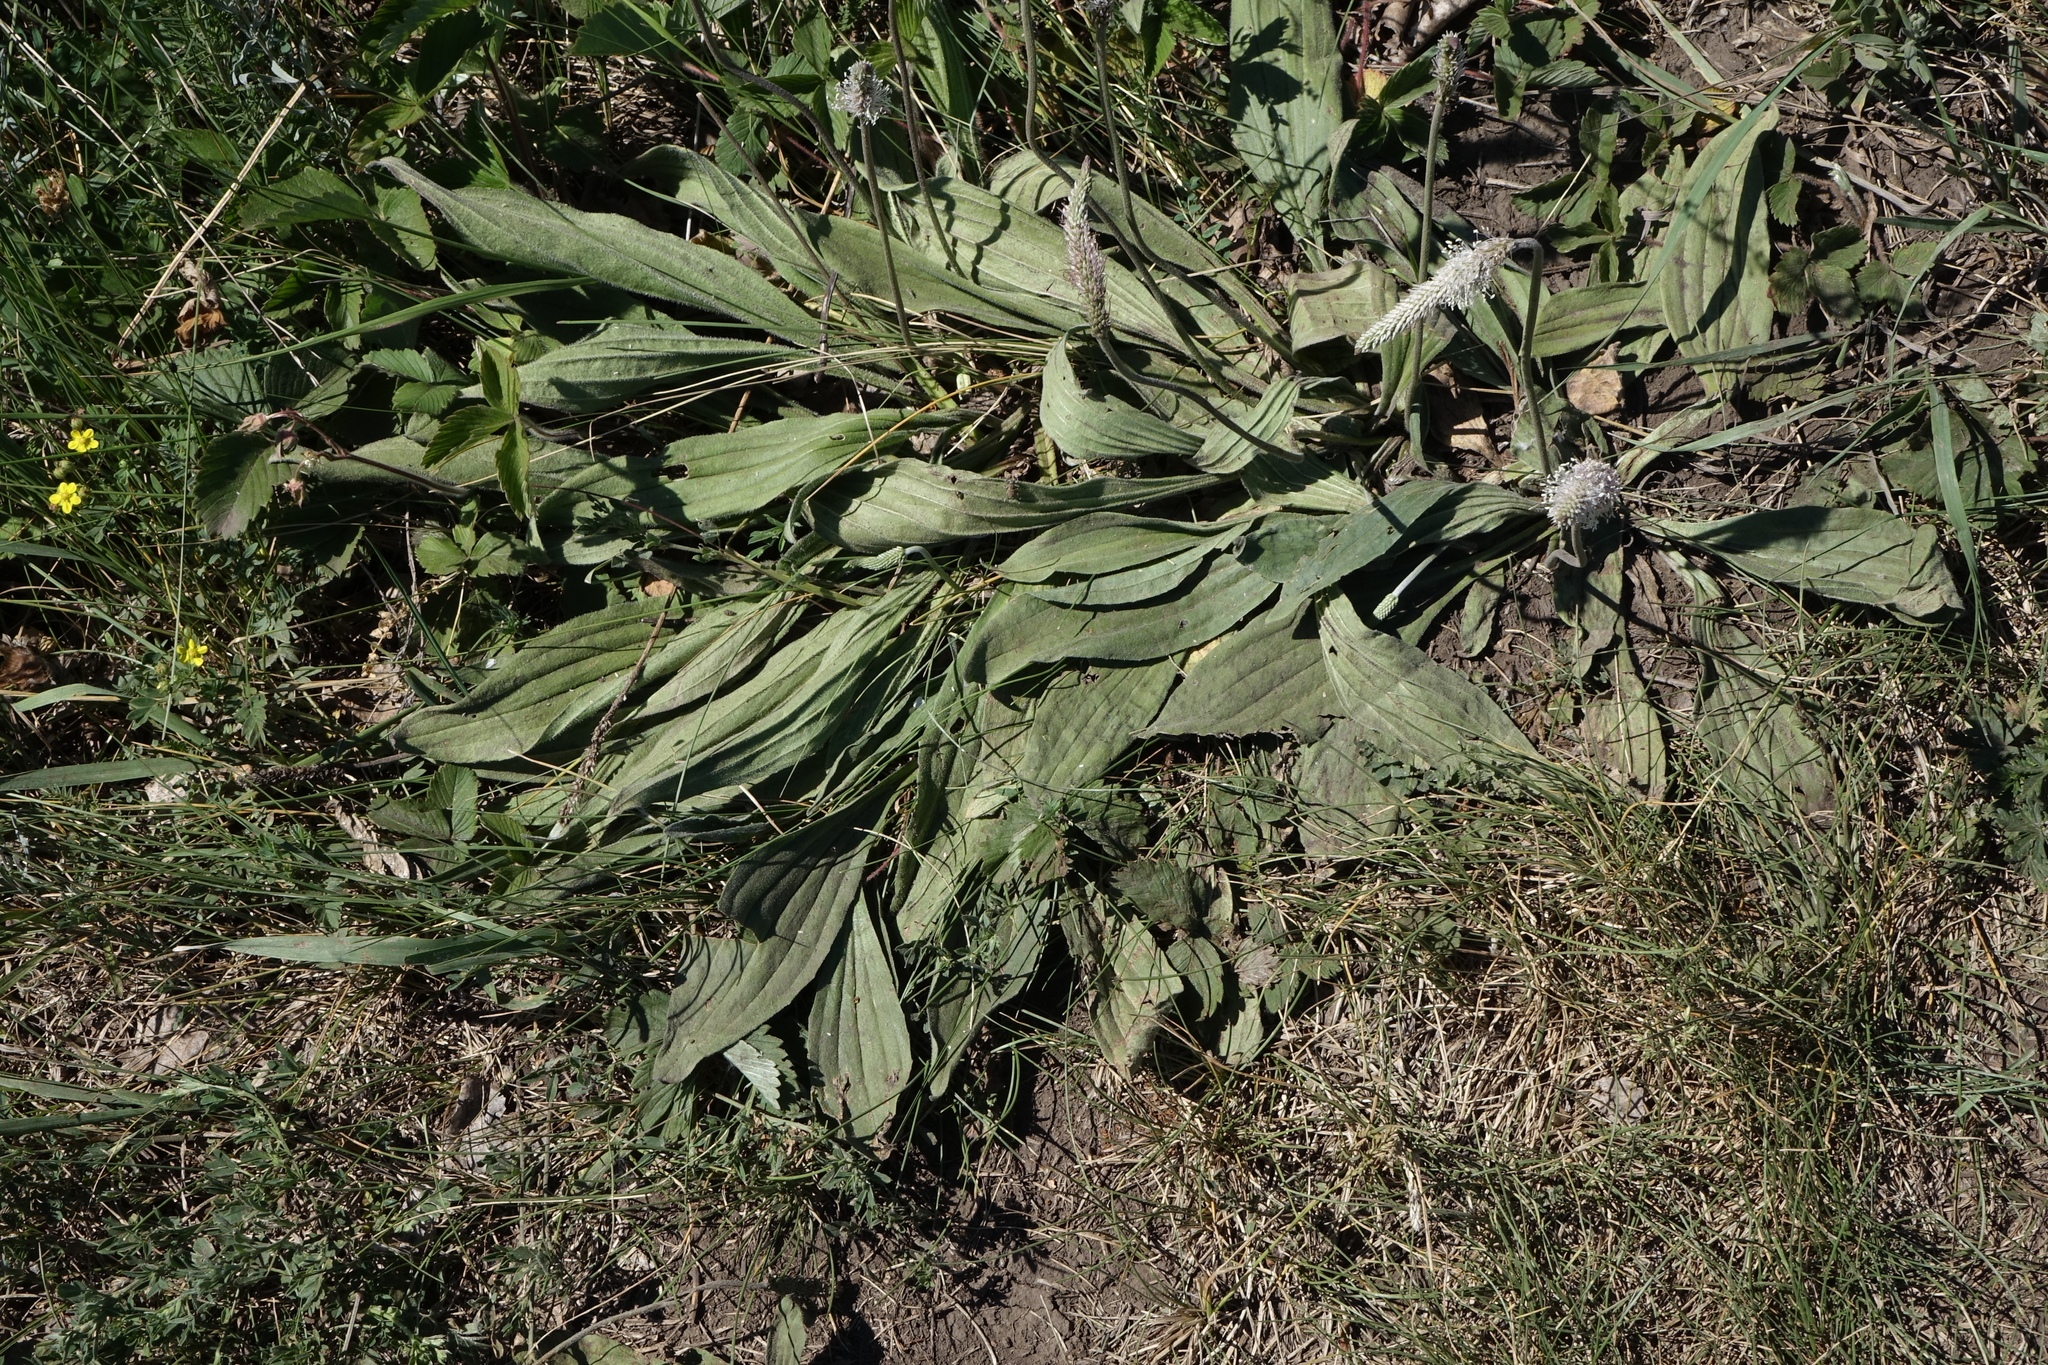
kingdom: Plantae
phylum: Tracheophyta
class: Magnoliopsida
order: Lamiales
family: Plantaginaceae
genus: Plantago
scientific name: Plantago media
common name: Hoary plantain
